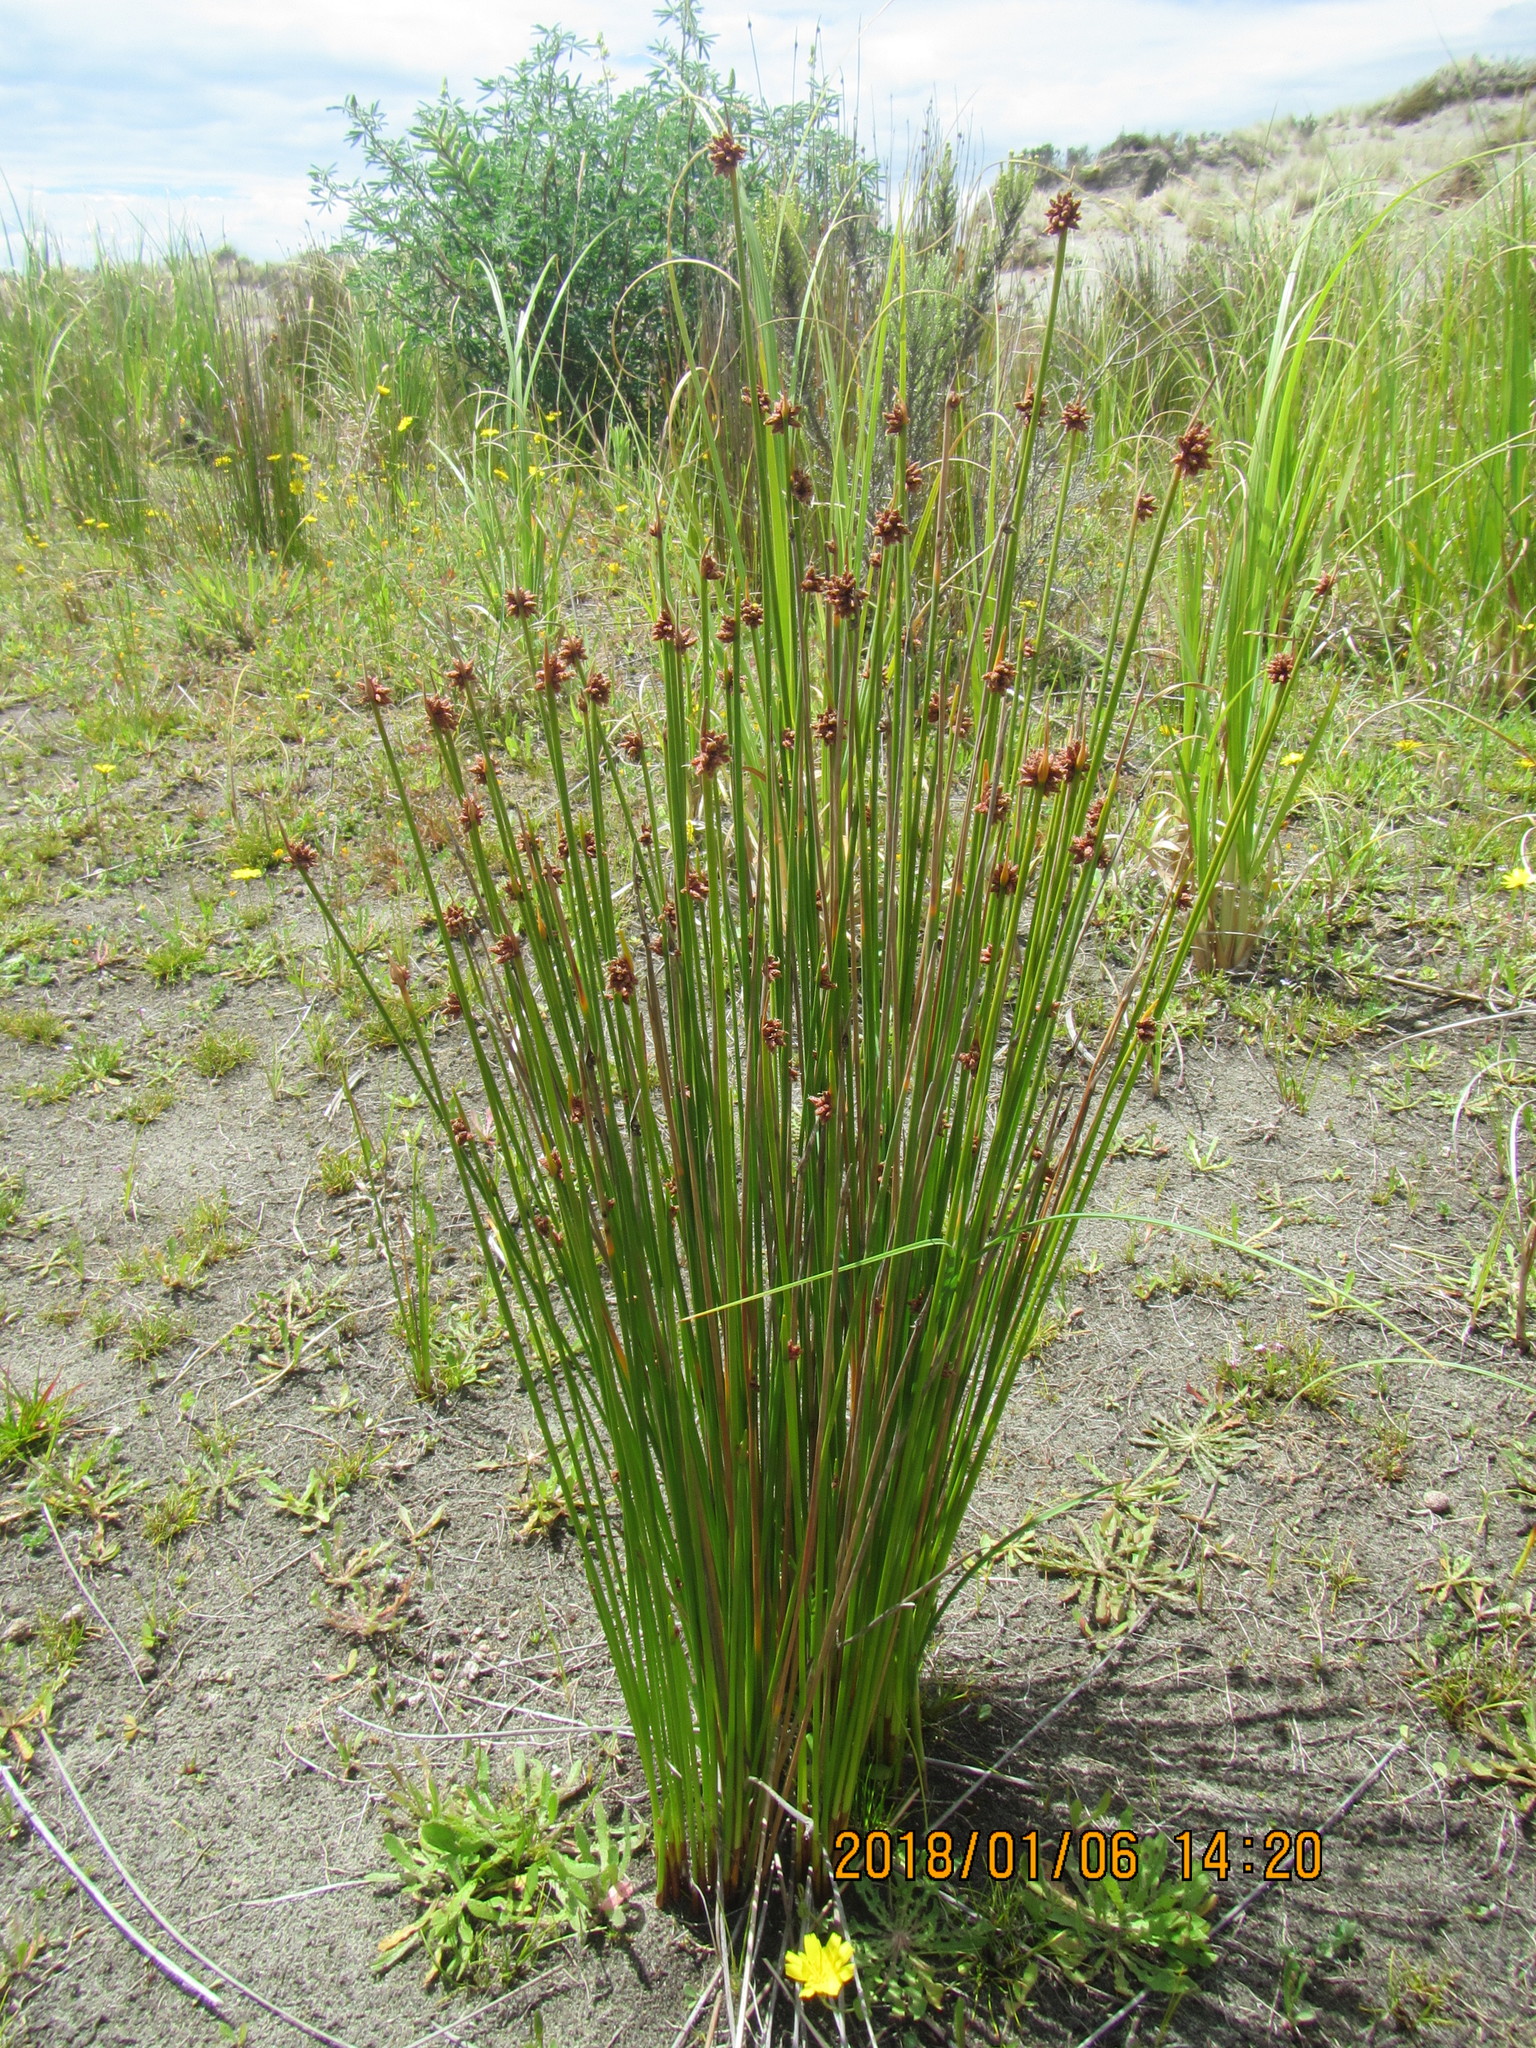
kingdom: Plantae
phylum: Tracheophyta
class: Liliopsida
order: Poales
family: Cyperaceae
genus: Ficinia
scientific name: Ficinia nodosa
